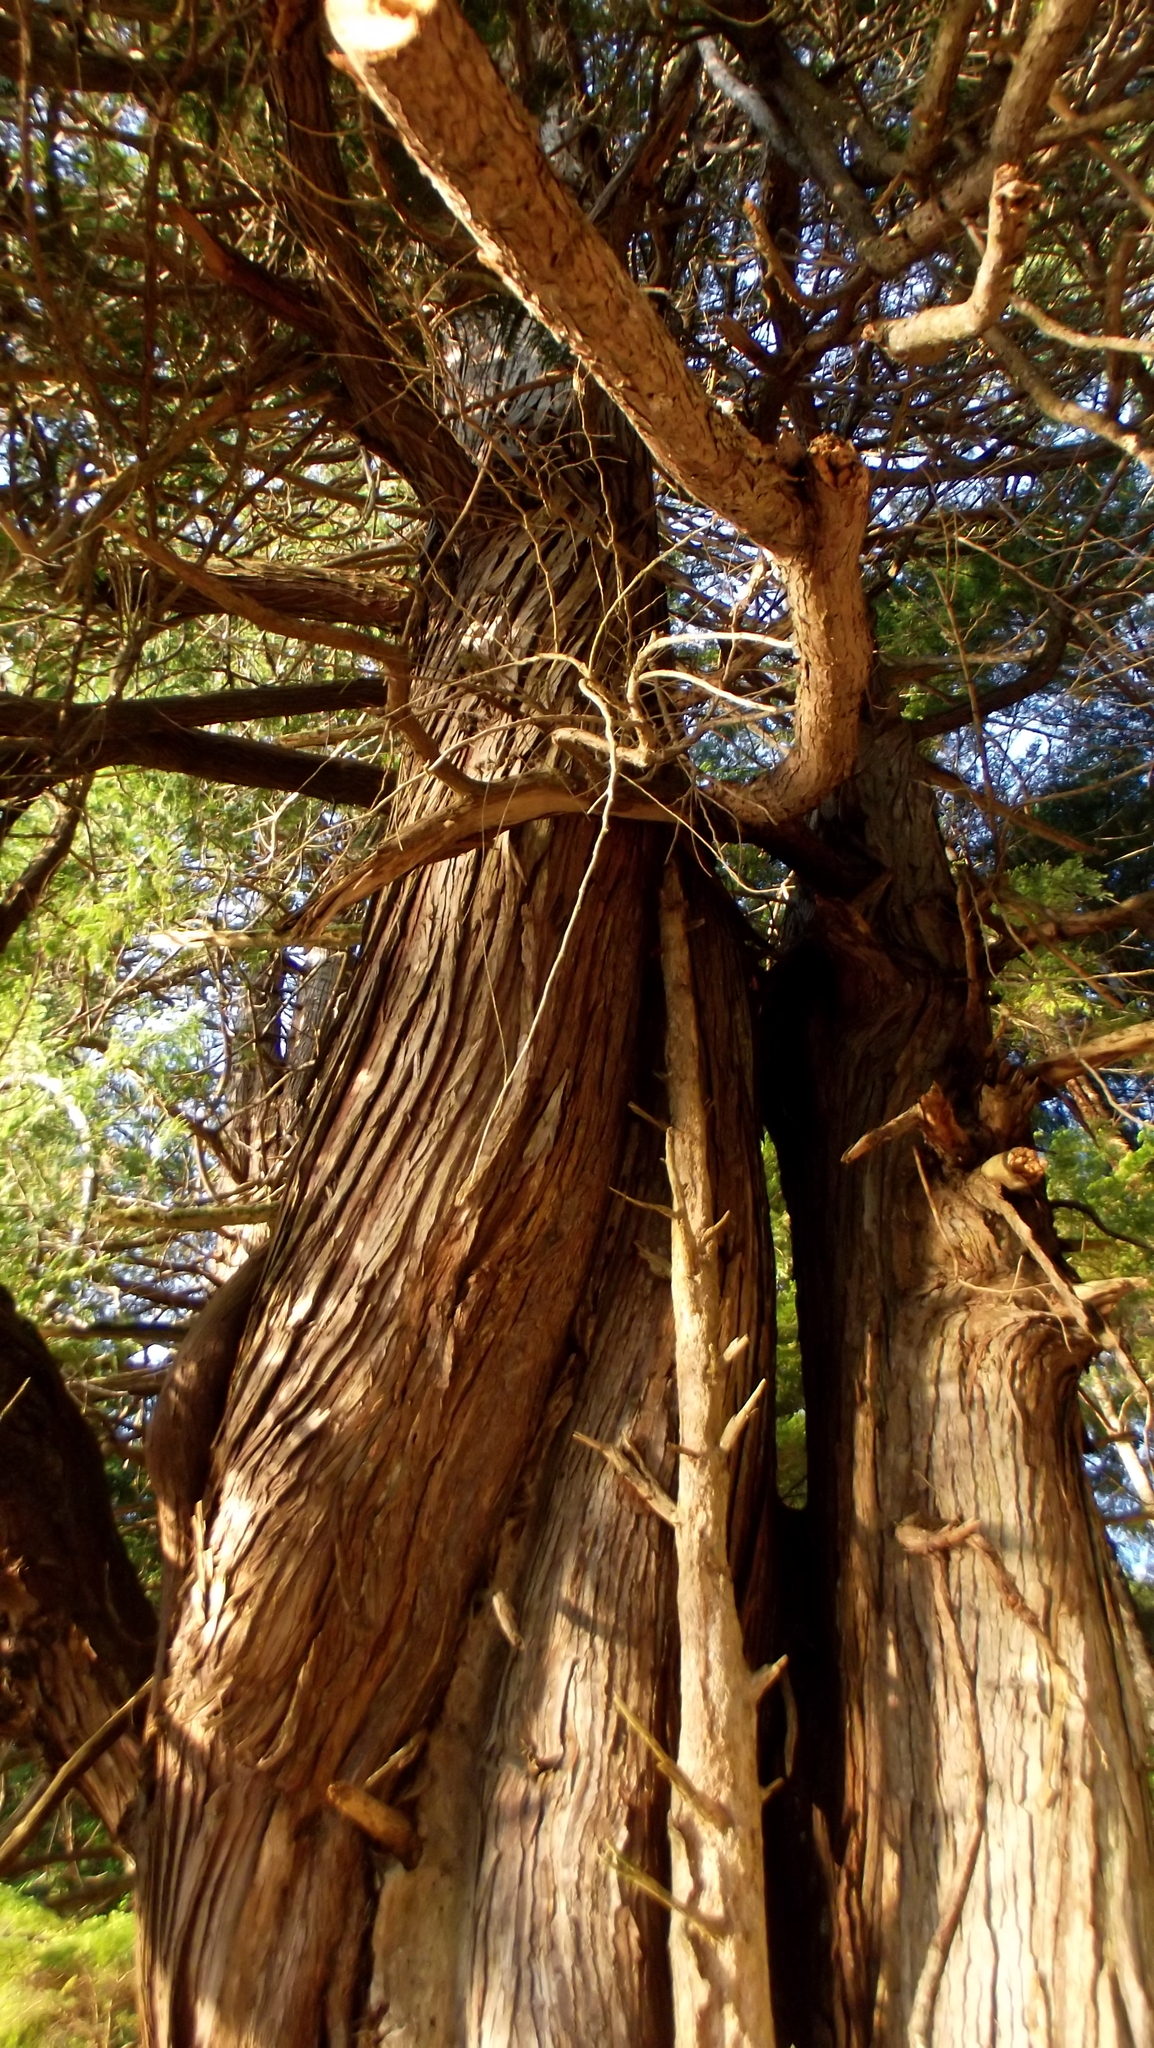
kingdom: Plantae
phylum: Tracheophyta
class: Pinopsida
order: Pinales
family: Cupressaceae
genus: Thuja
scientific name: Thuja plicata
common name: Western red-cedar
